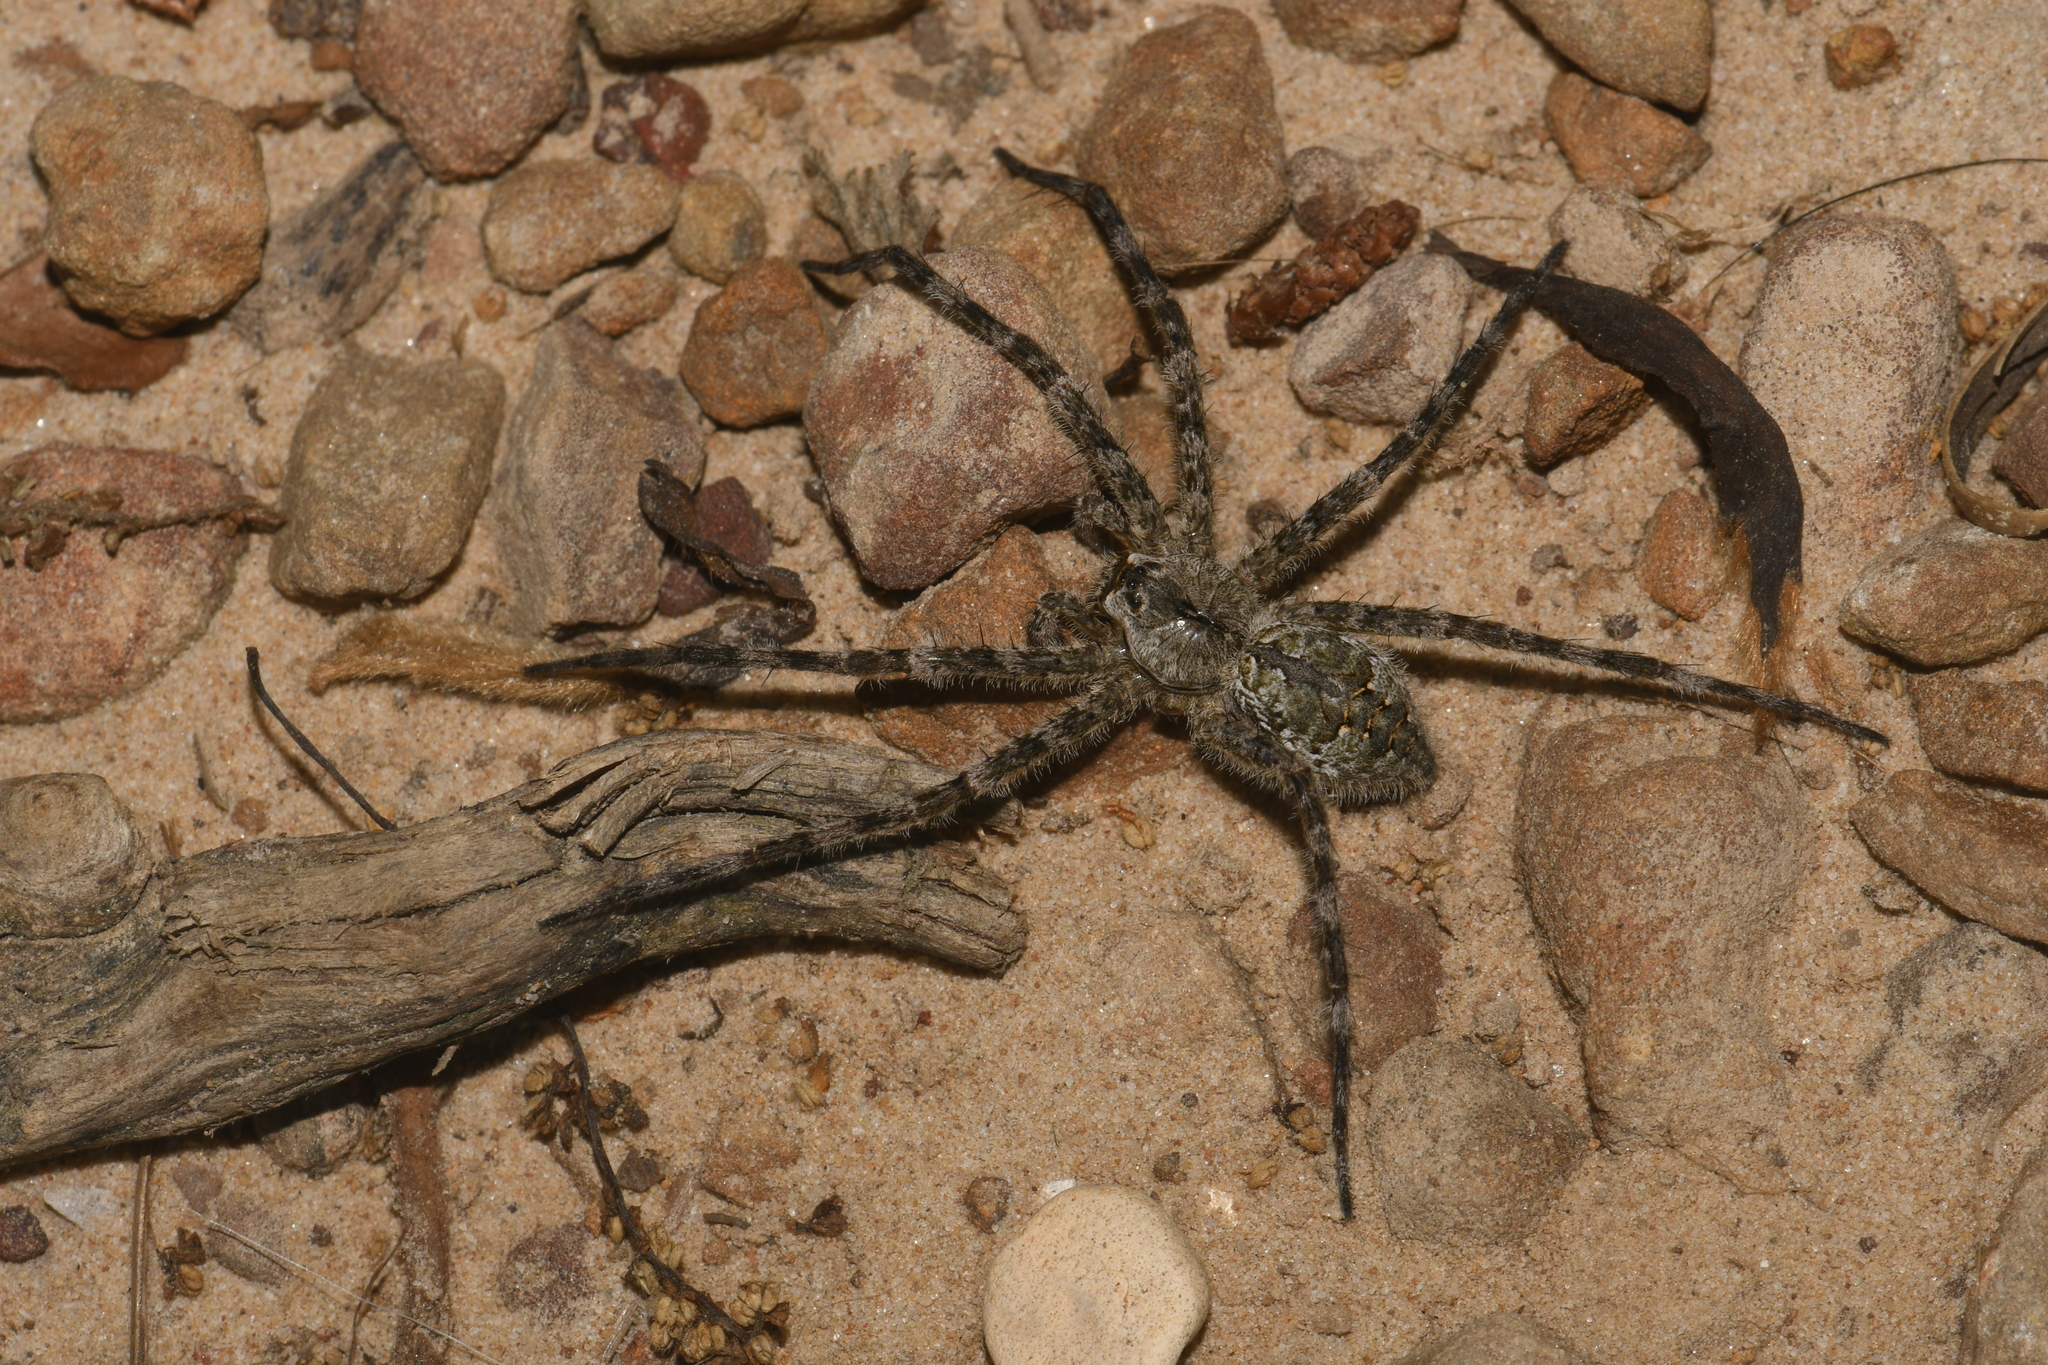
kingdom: Animalia
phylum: Arthropoda
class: Arachnida
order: Araneae
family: Pisauridae
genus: Dolomedes
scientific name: Dolomedes albineus
